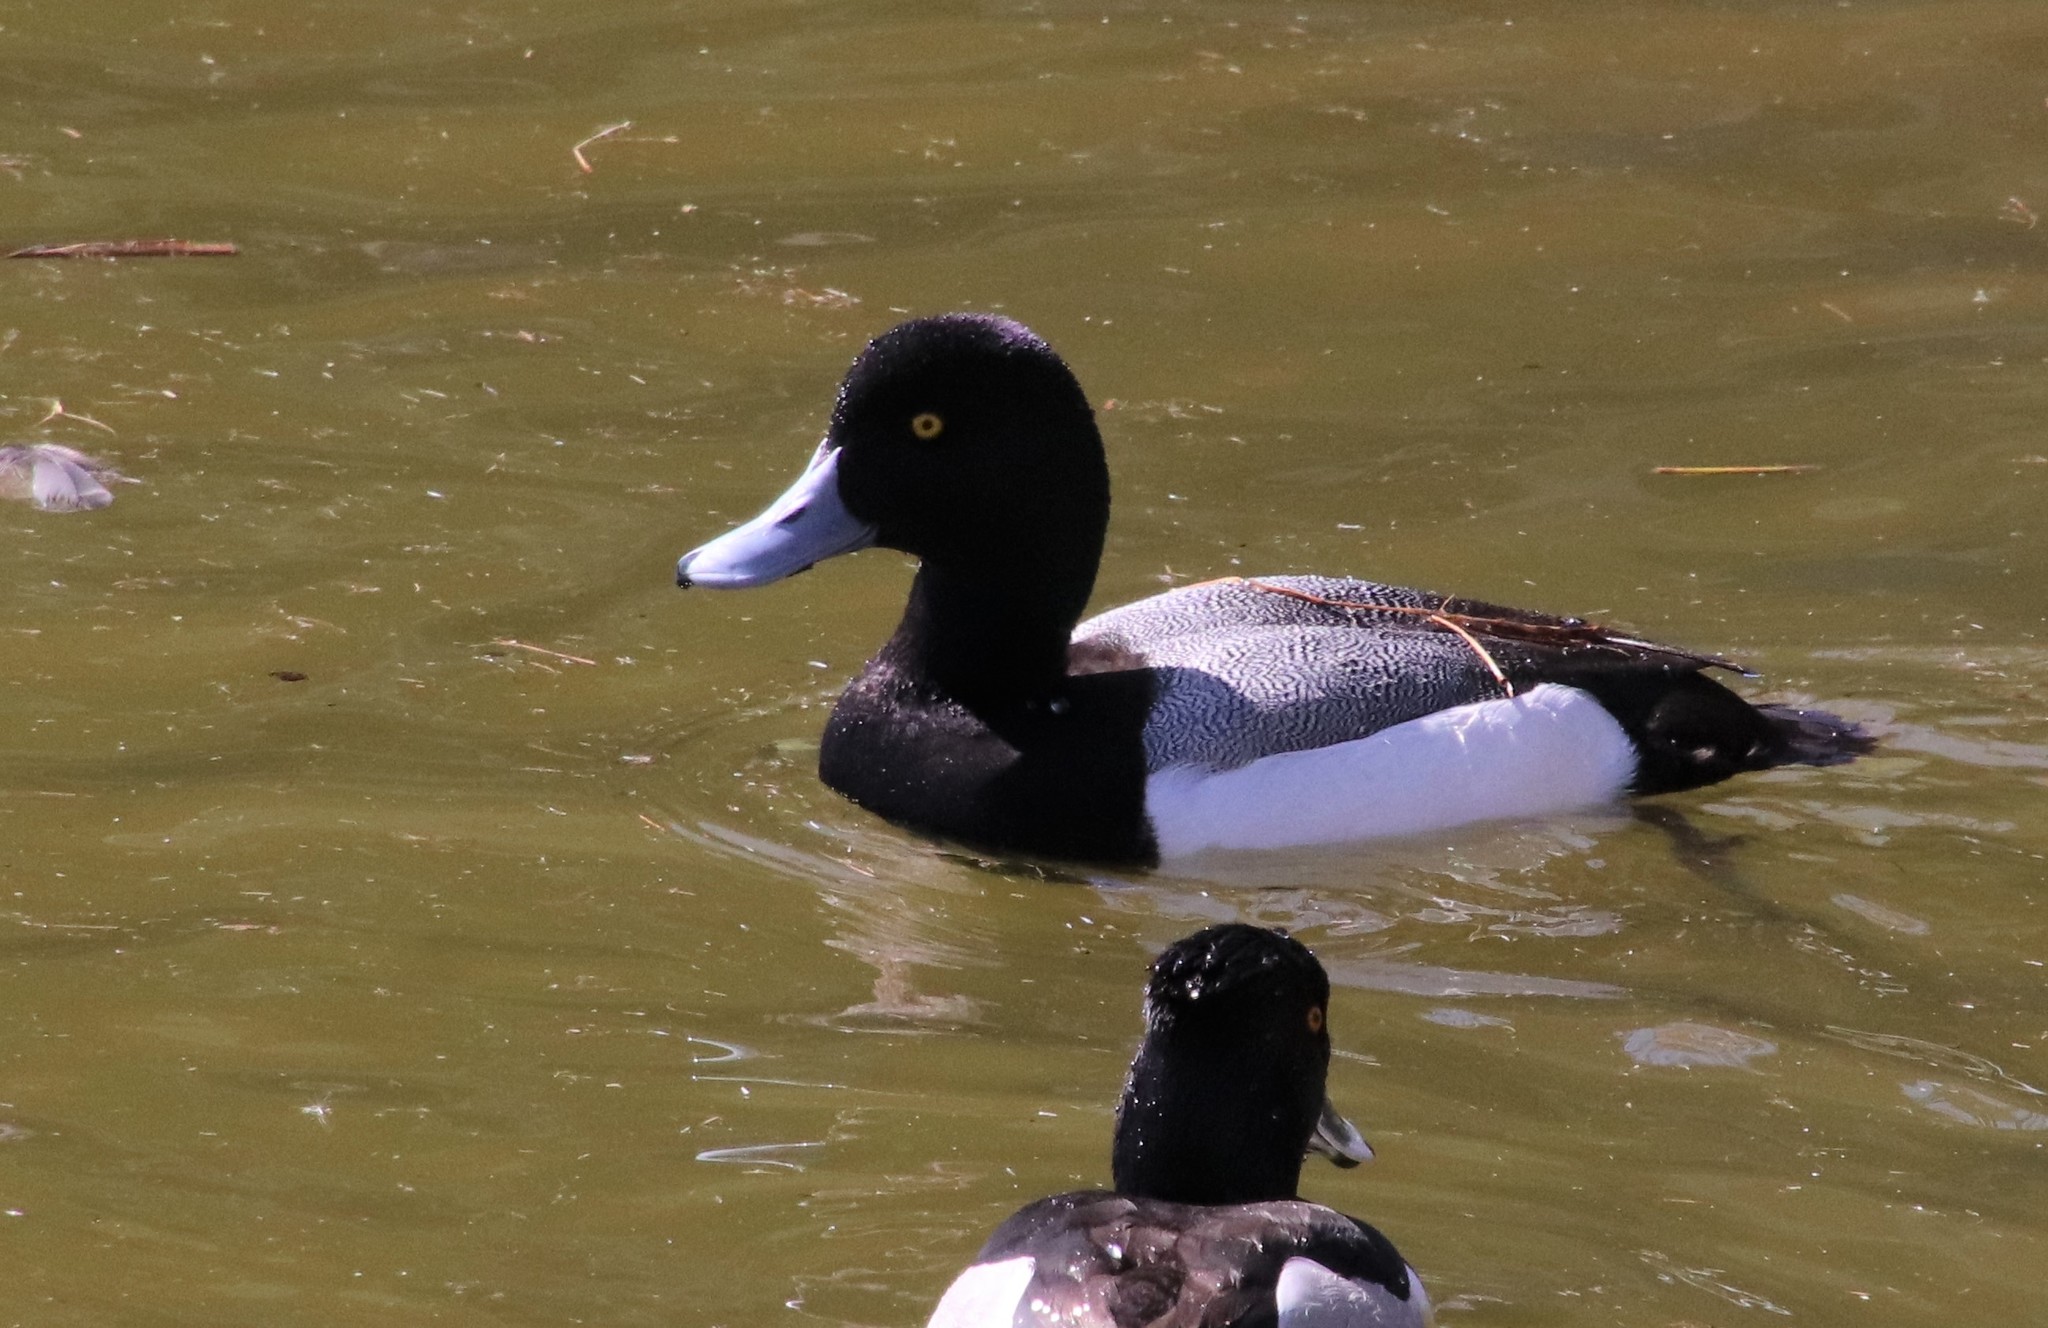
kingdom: Animalia
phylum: Chordata
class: Aves
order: Anseriformes
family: Anatidae
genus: Aythya
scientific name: Aythya marila
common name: Greater scaup
